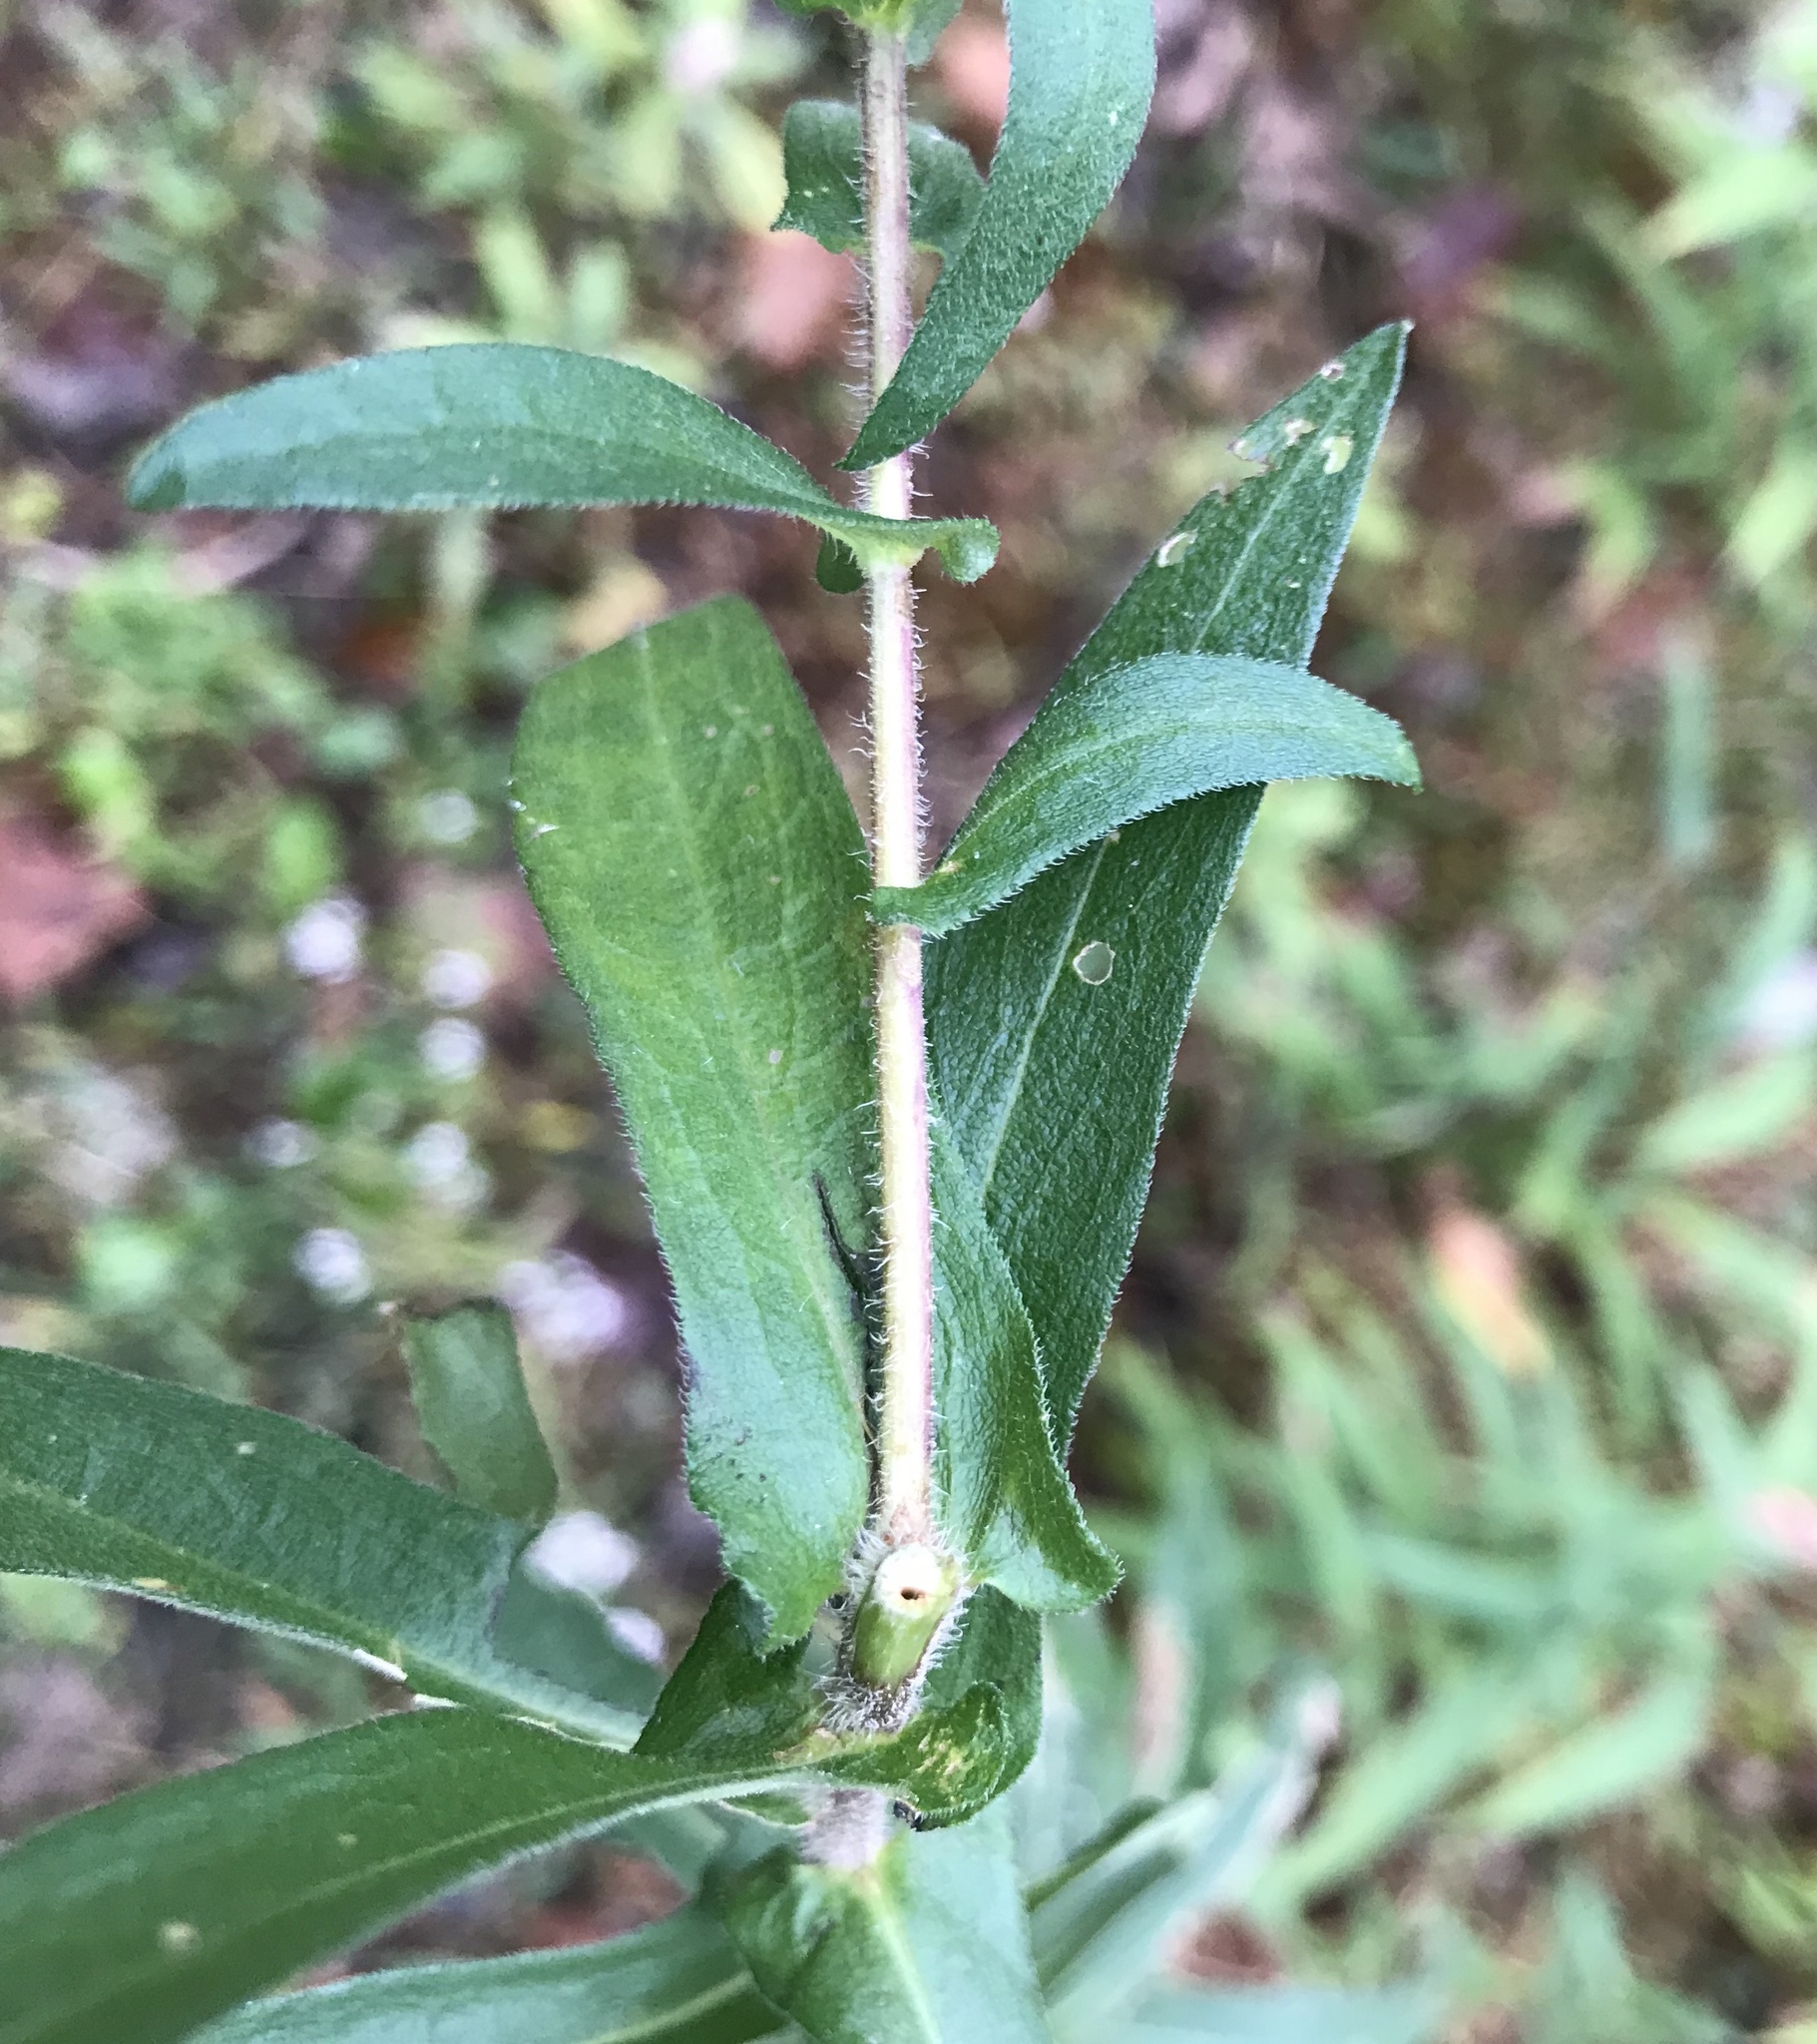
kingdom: Plantae
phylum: Tracheophyta
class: Magnoliopsida
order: Asterales
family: Asteraceae
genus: Symphyotrichum
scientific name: Symphyotrichum novae-angliae
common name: Michaelmas daisy
